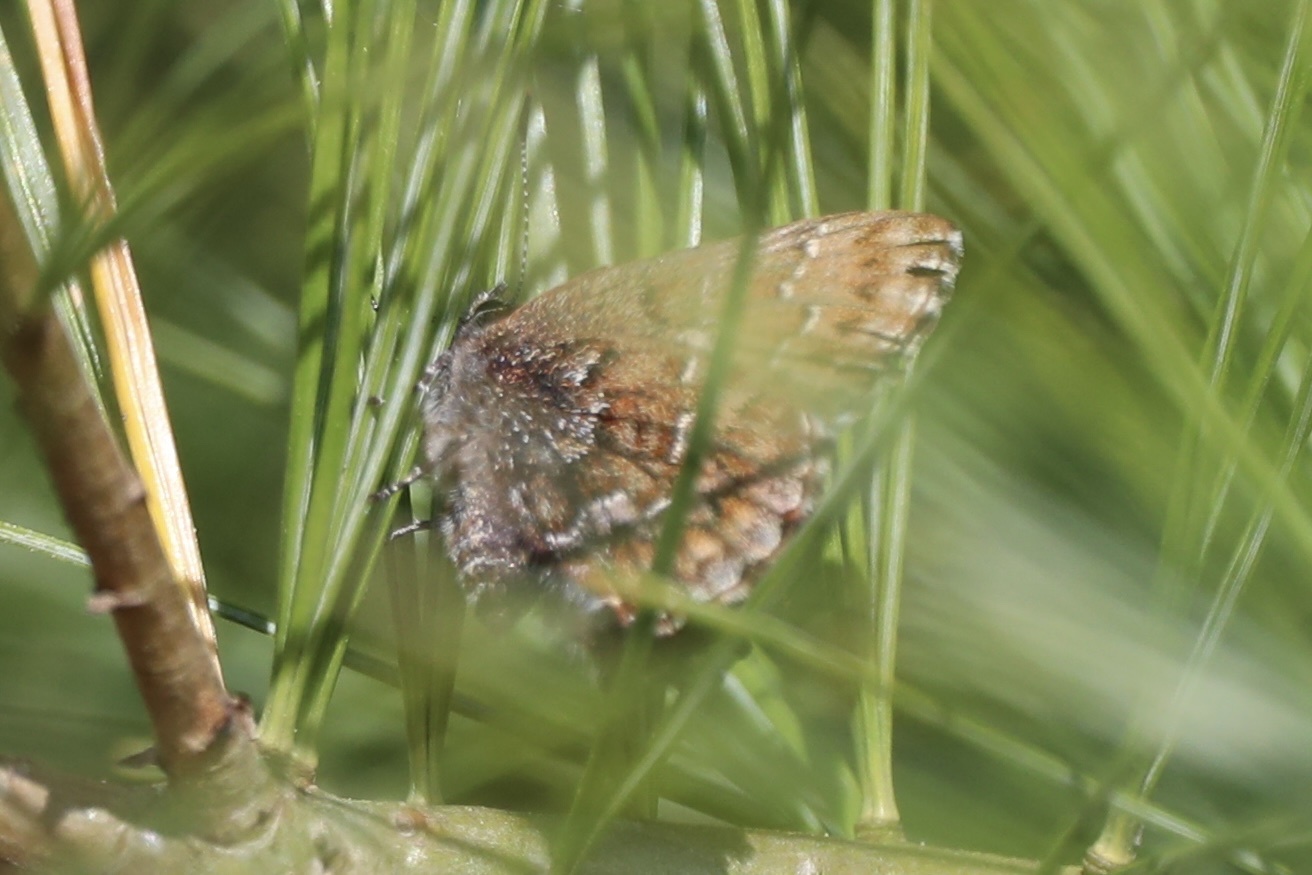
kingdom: Animalia
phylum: Arthropoda
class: Insecta
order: Lepidoptera
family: Lycaenidae
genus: Incisalia
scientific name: Incisalia niphon
